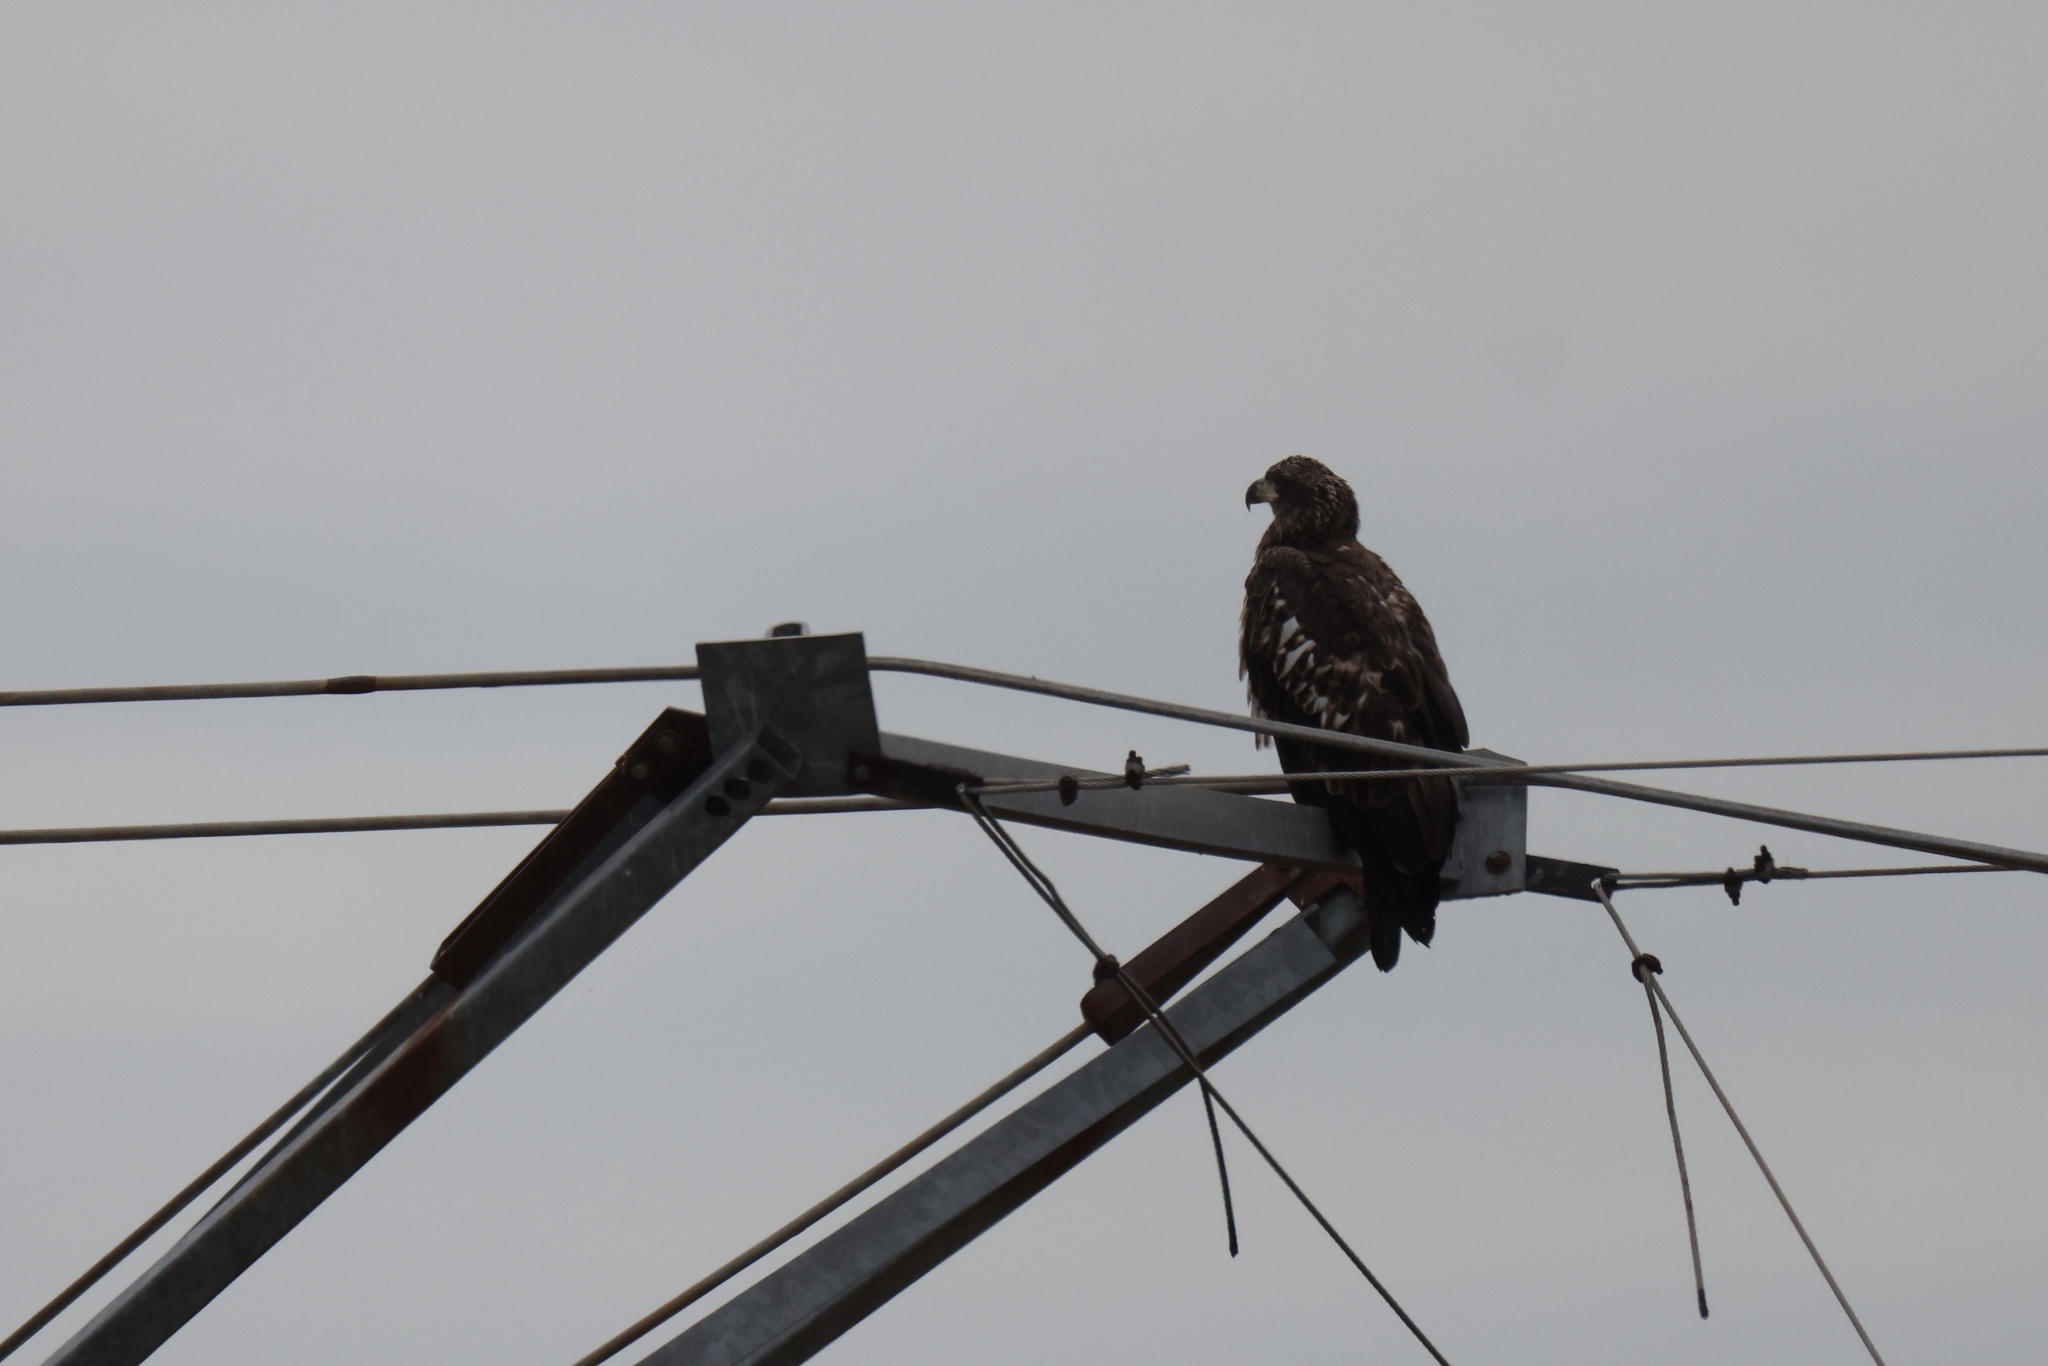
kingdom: Animalia
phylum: Chordata
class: Aves
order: Accipitriformes
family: Accipitridae
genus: Haliaeetus
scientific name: Haliaeetus leucocephalus
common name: Bald eagle
